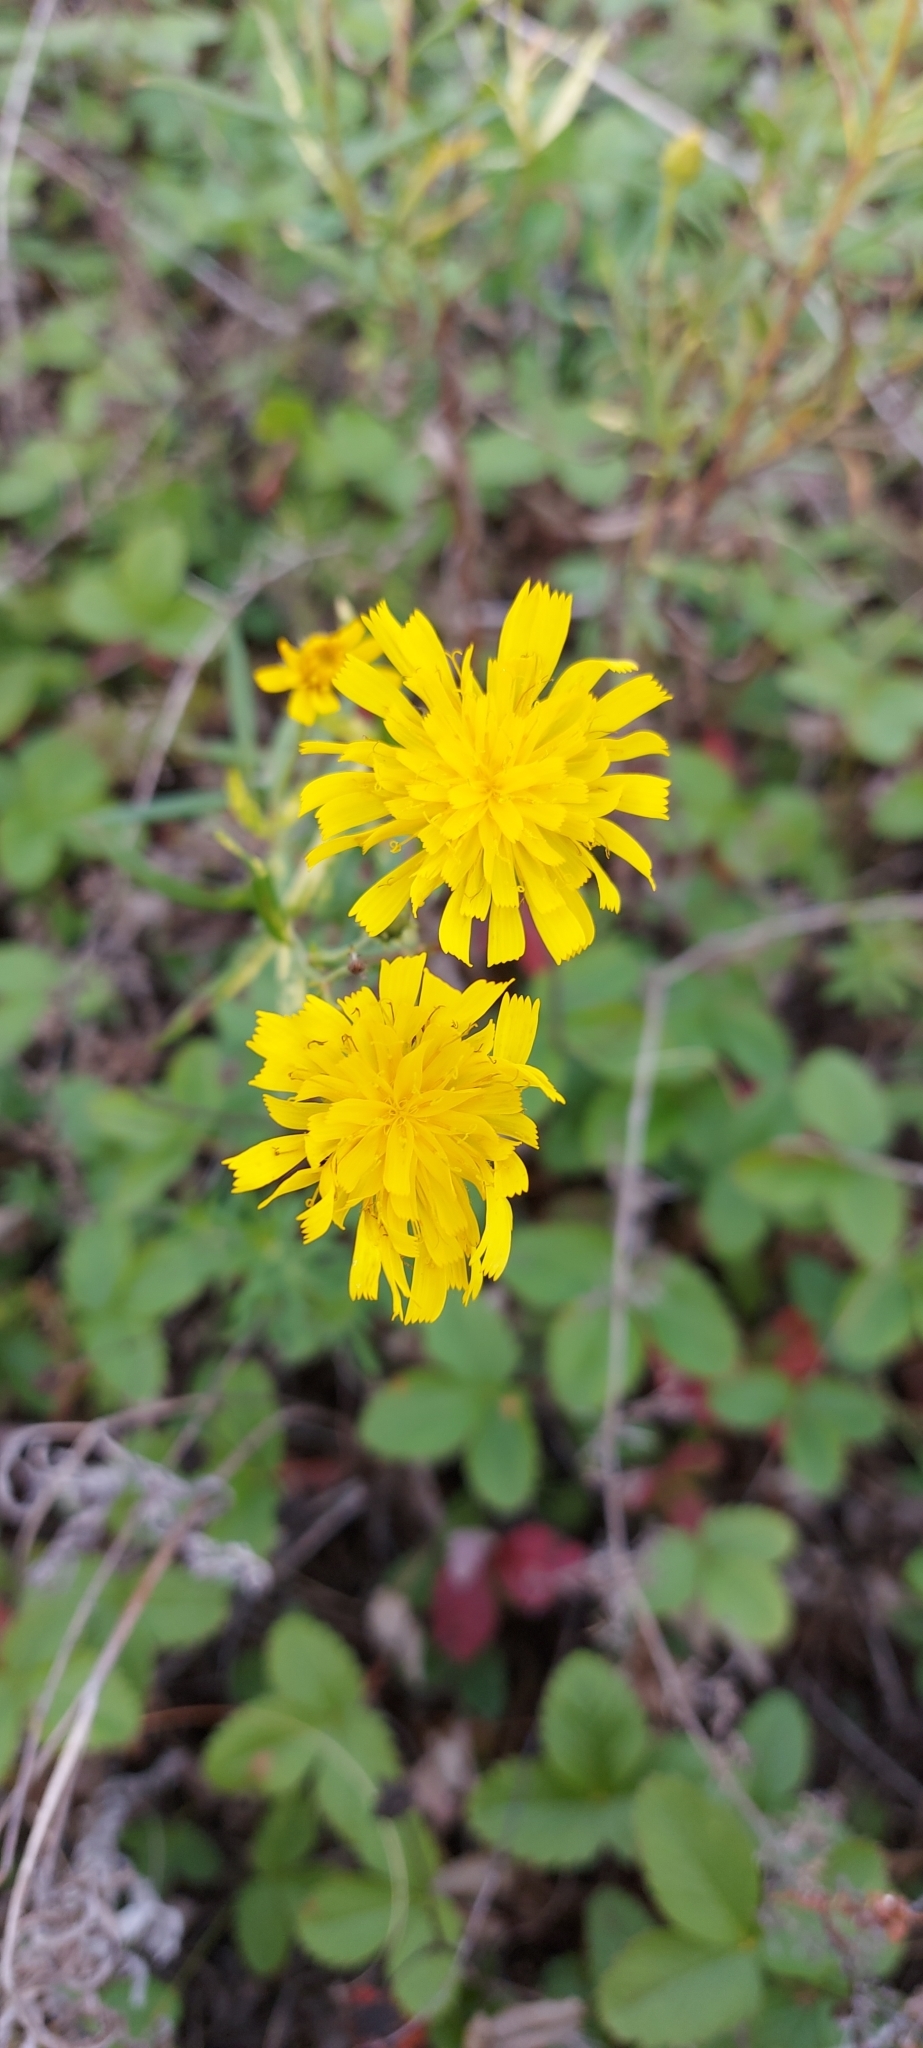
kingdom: Plantae
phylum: Tracheophyta
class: Magnoliopsida
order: Asterales
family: Asteraceae
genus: Hieracium
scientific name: Hieracium umbellatum
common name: Northern hawkweed
